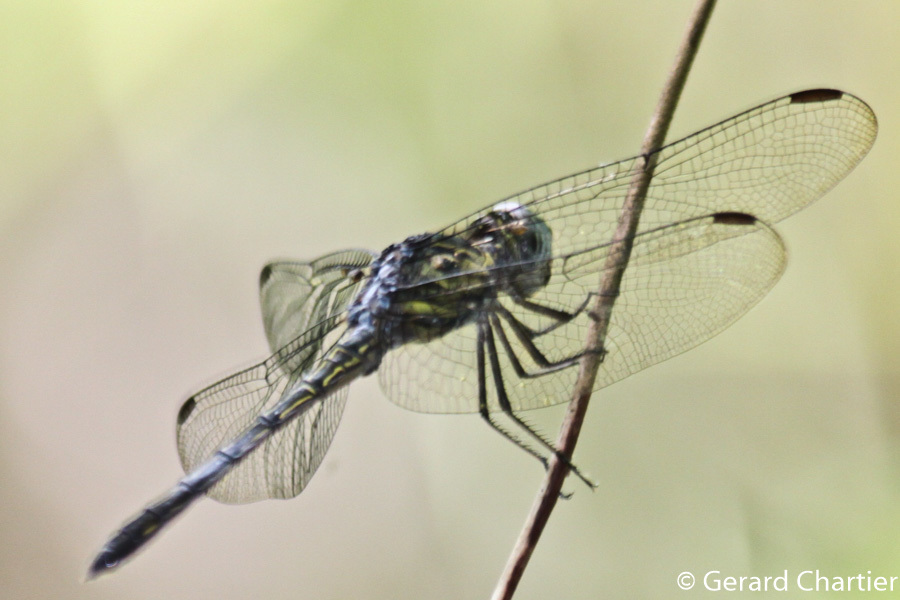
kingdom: Animalia
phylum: Arthropoda
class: Insecta
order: Odonata
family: Libellulidae
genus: Cratilla
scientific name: Cratilla lineata
